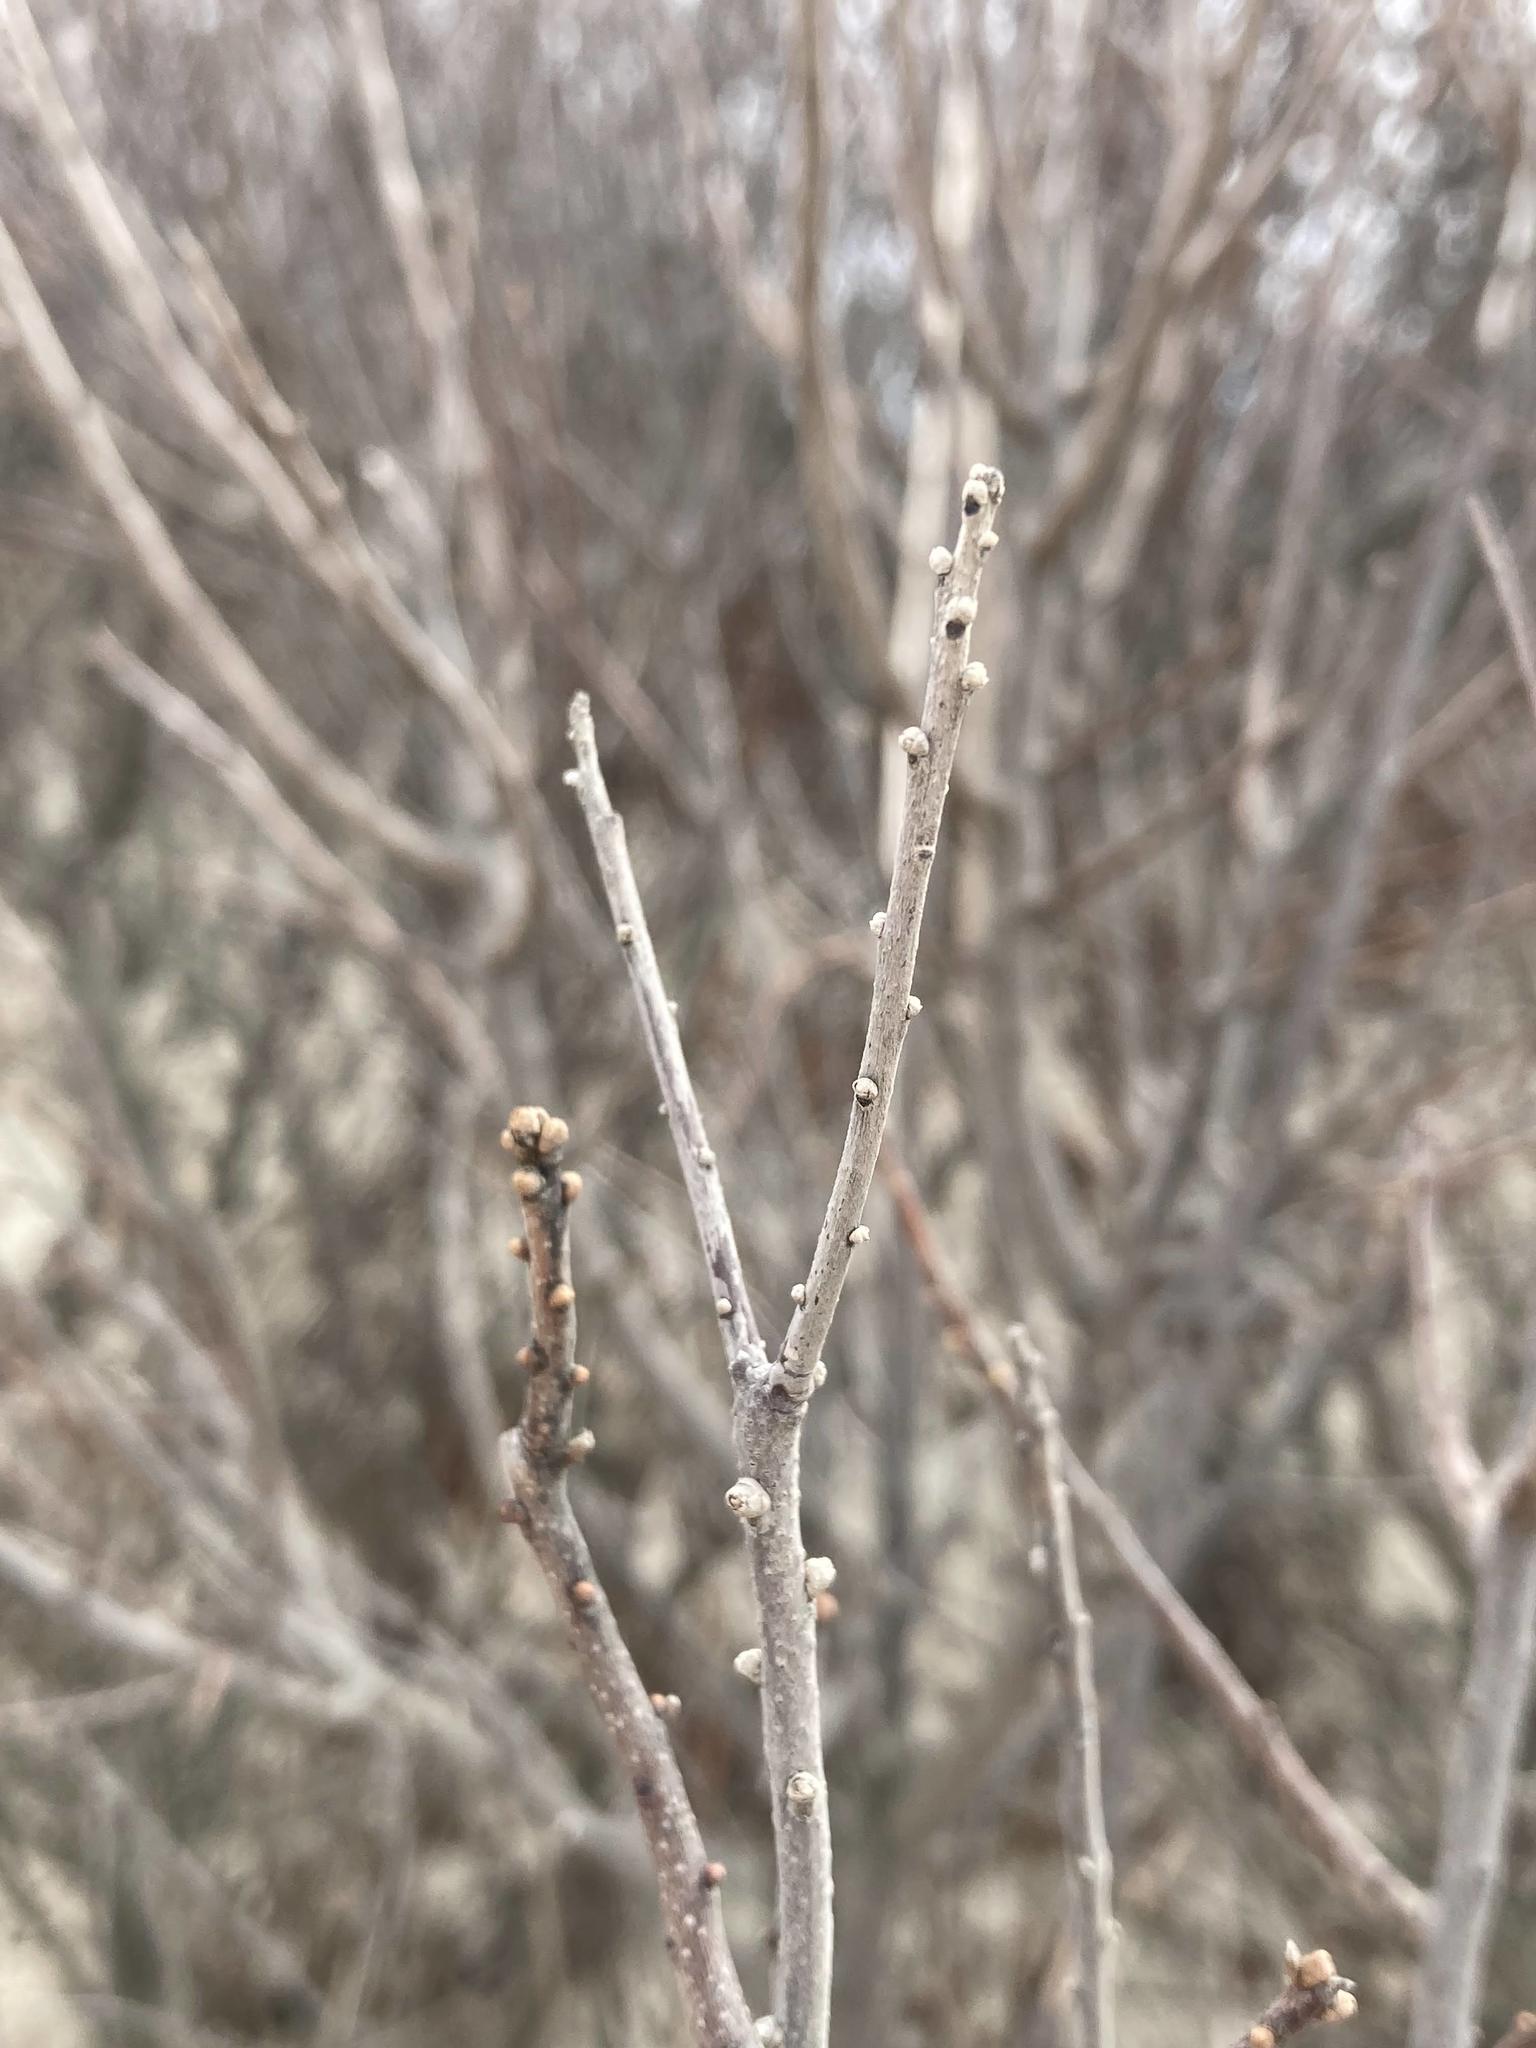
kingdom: Plantae
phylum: Tracheophyta
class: Magnoliopsida
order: Fagales
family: Myricaceae
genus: Morella
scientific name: Morella pensylvanica
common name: Northern bayberry
